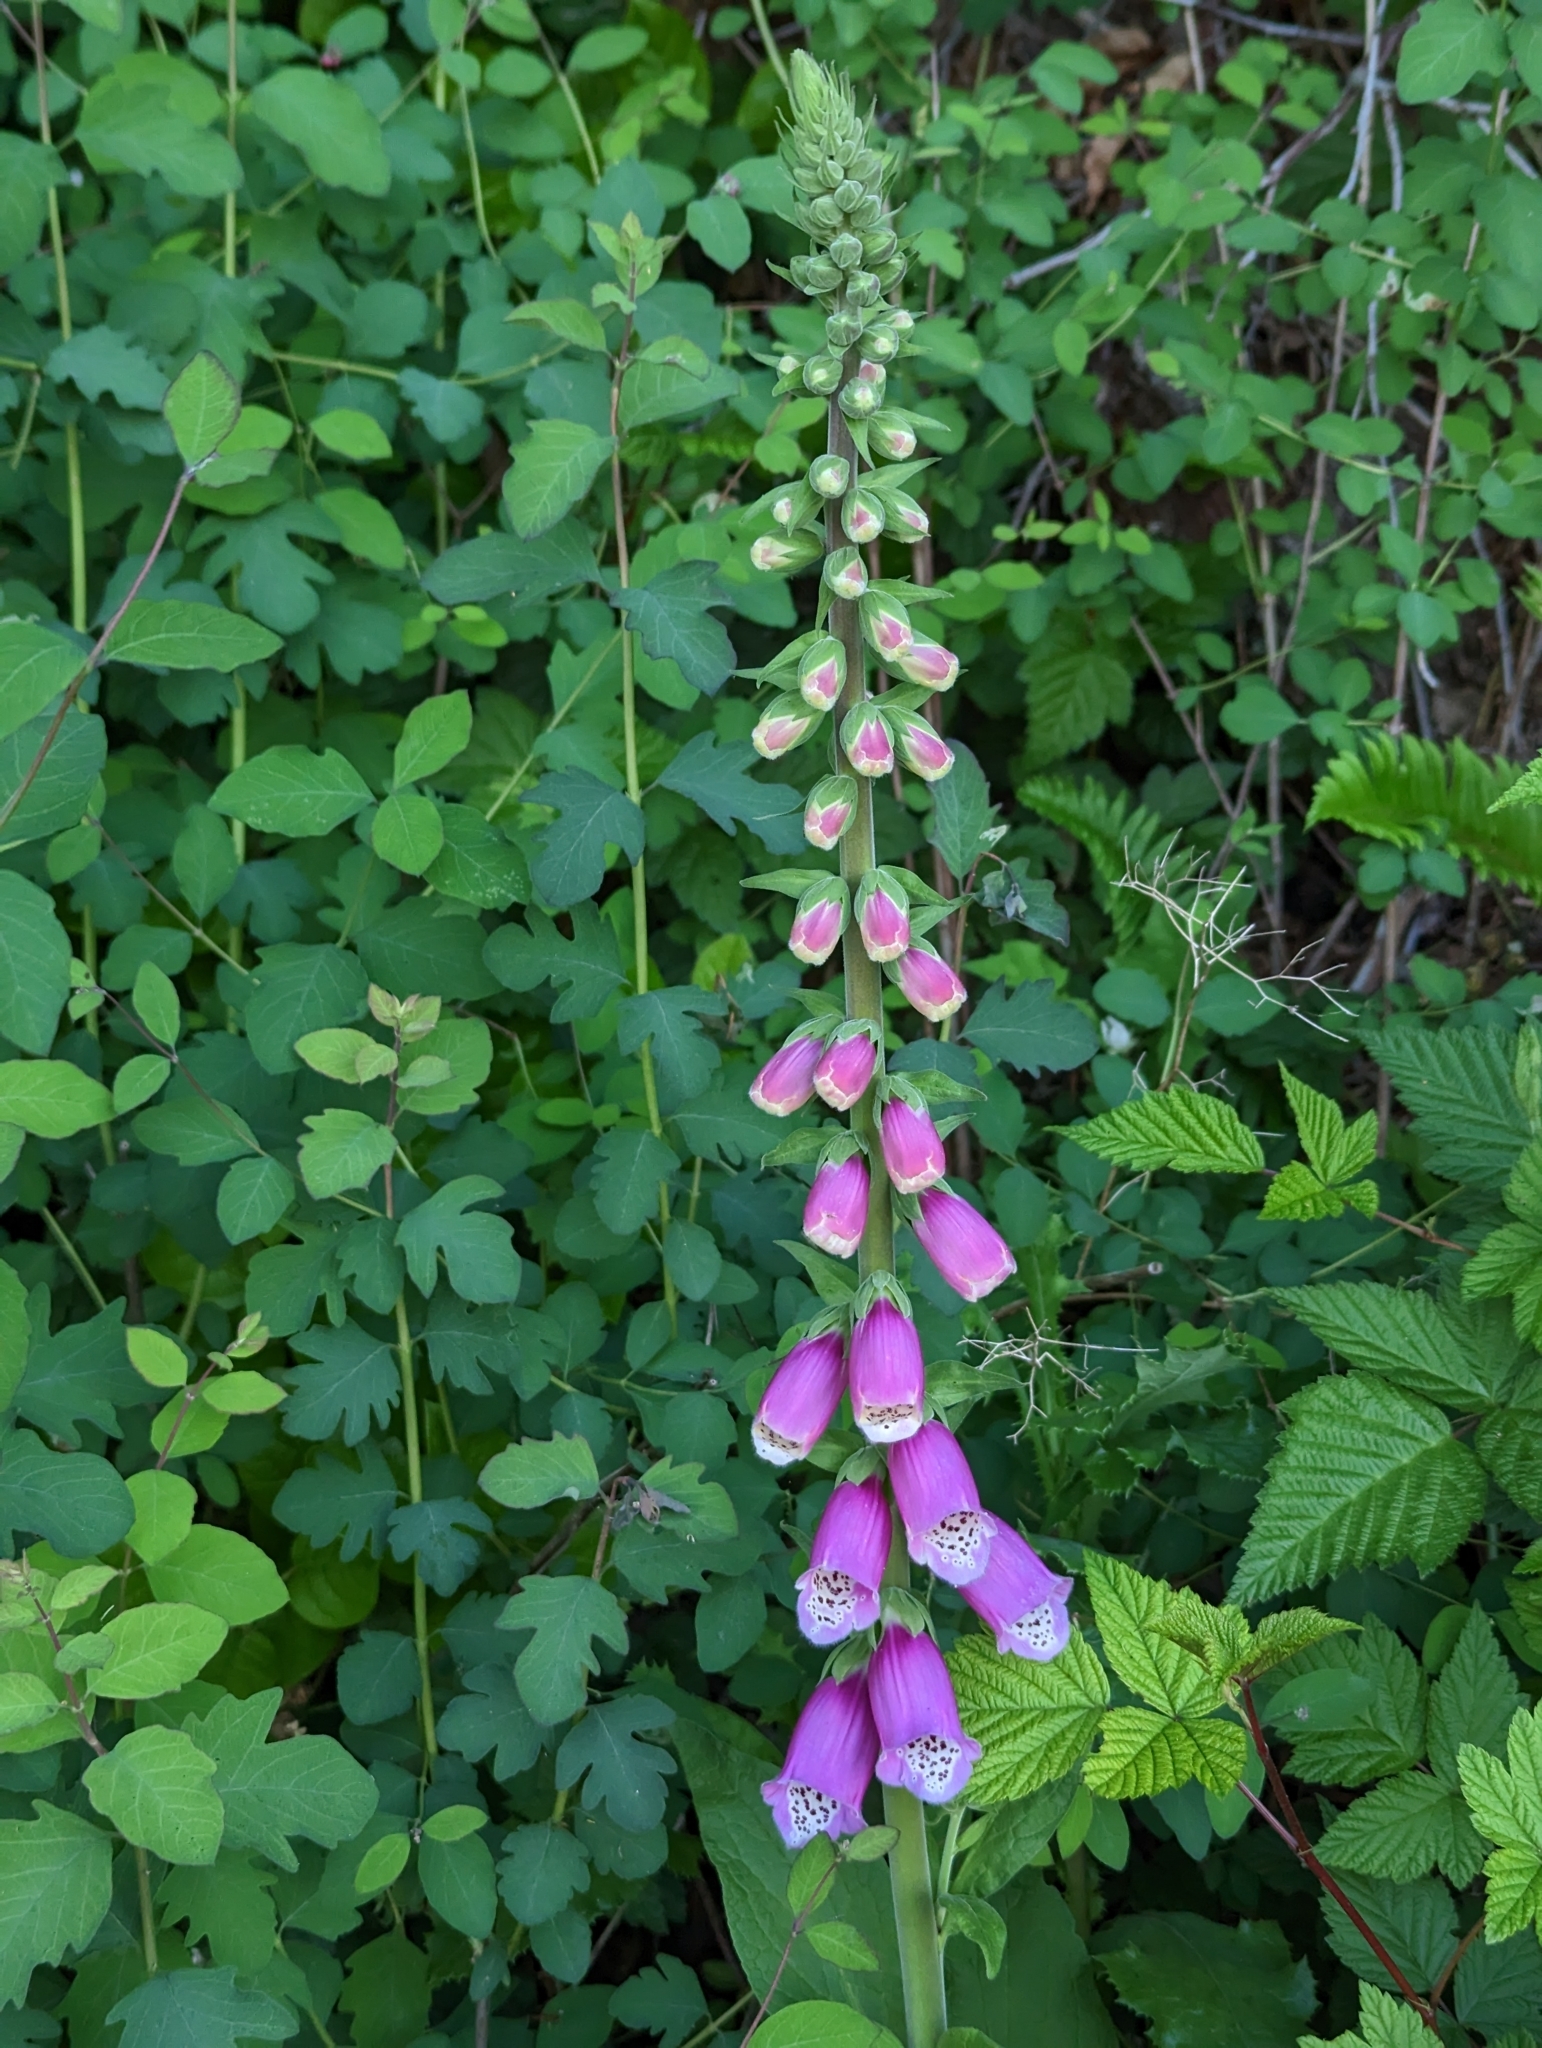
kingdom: Plantae
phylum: Tracheophyta
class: Magnoliopsida
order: Lamiales
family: Plantaginaceae
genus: Digitalis
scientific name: Digitalis purpurea
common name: Foxglove
